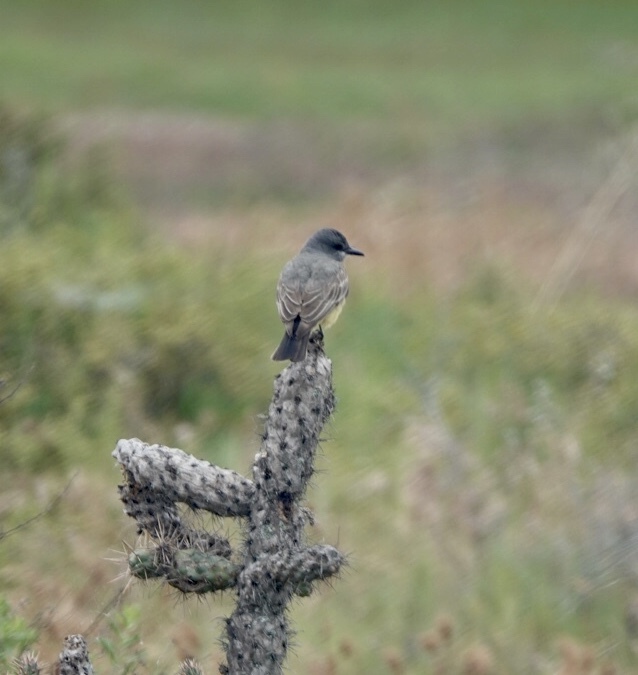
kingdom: Animalia
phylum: Chordata
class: Aves
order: Passeriformes
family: Tyrannidae
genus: Tyrannus
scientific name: Tyrannus vociferans
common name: Cassin's kingbird
